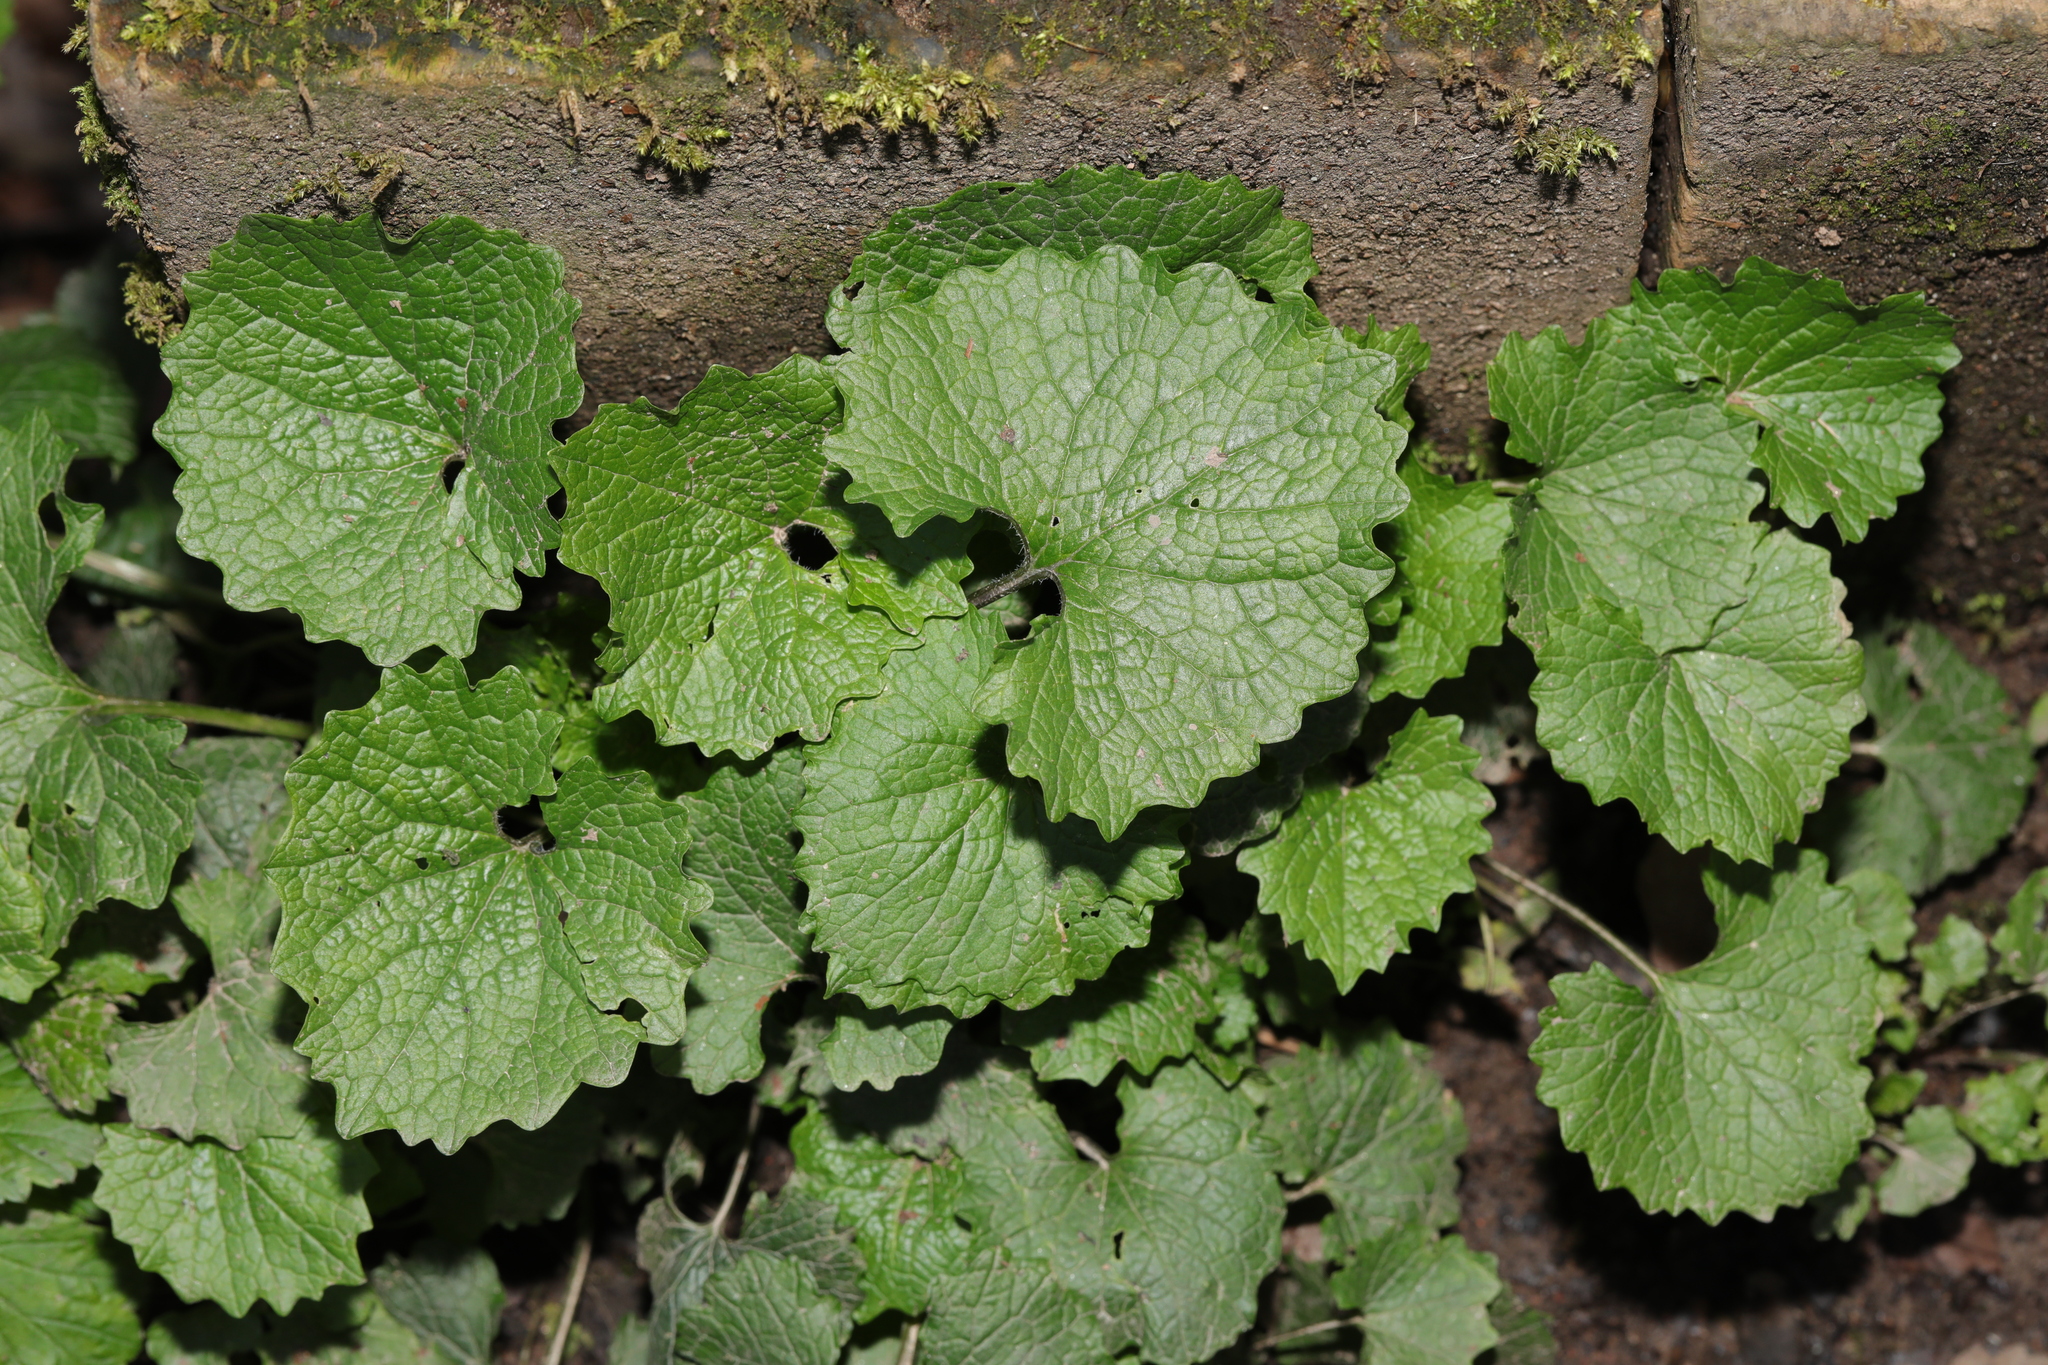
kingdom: Plantae
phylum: Tracheophyta
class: Magnoliopsida
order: Brassicales
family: Brassicaceae
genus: Alliaria
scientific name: Alliaria petiolata
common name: Garlic mustard
